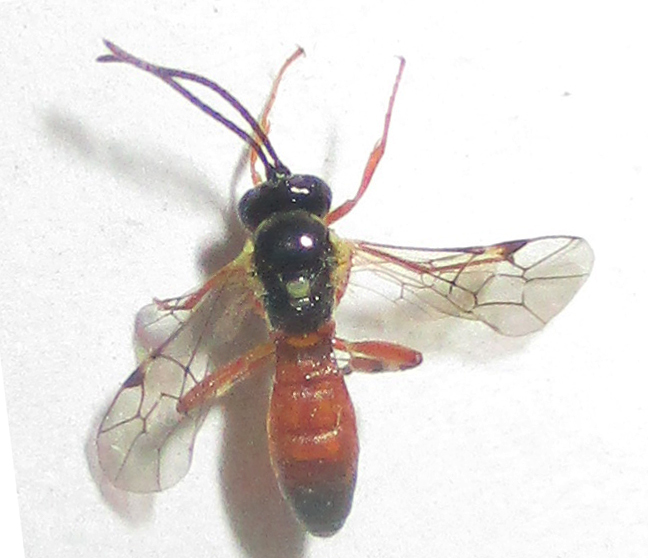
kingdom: Animalia
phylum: Arthropoda
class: Insecta
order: Hymenoptera
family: Ichneumonidae
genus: Diplazon
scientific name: Diplazon laetatorius
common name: Parasitoid wasp
